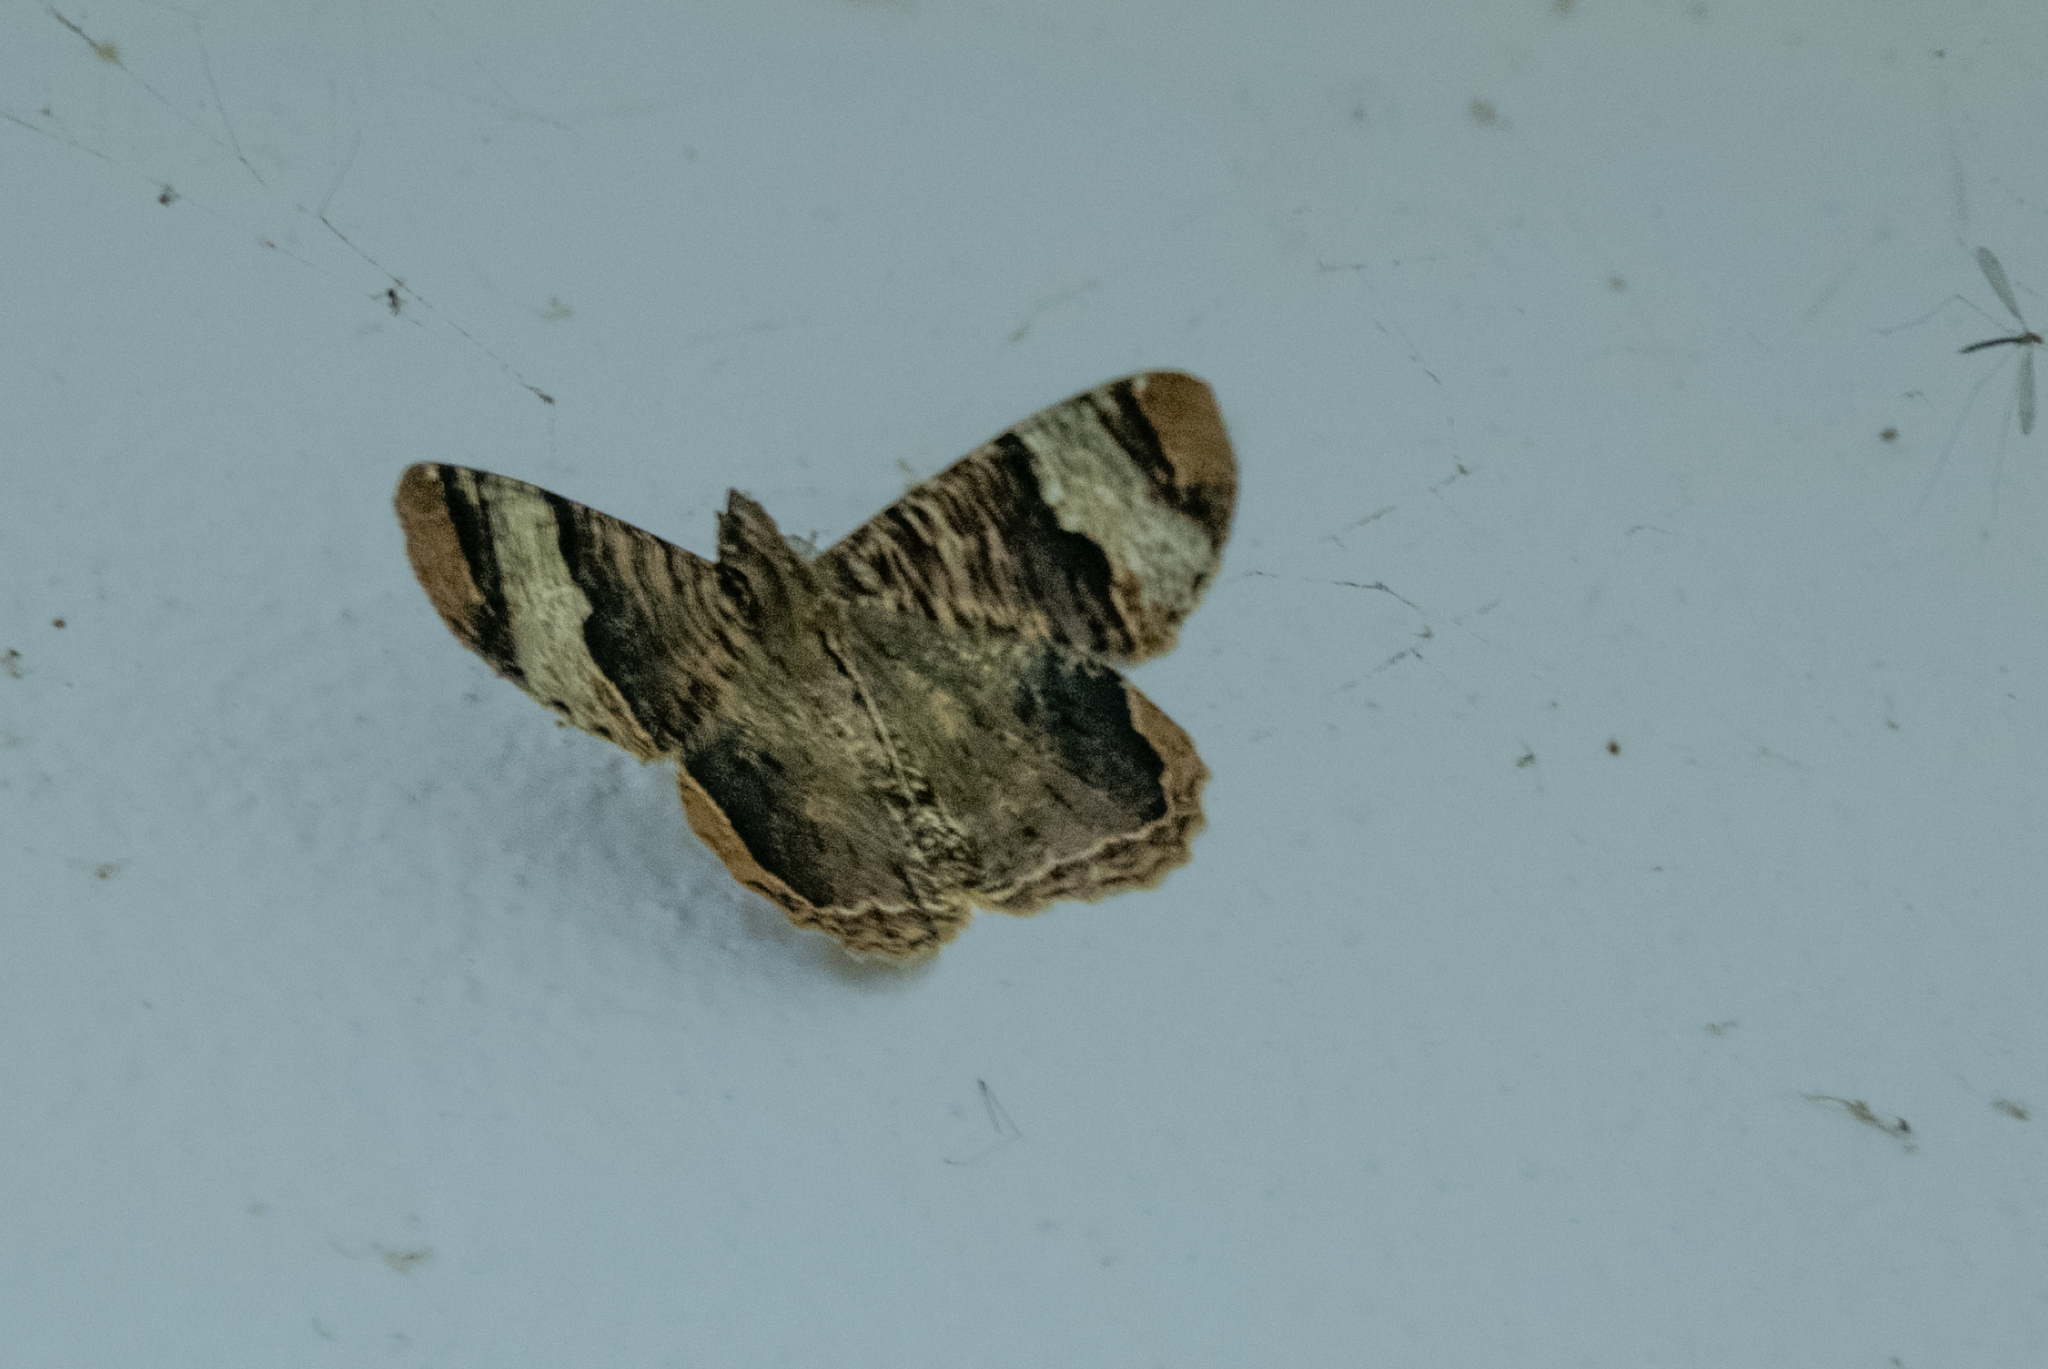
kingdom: Animalia
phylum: Arthropoda
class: Insecta
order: Lepidoptera
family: Geometridae
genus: Xandrames
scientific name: Xandrames latiferaria
